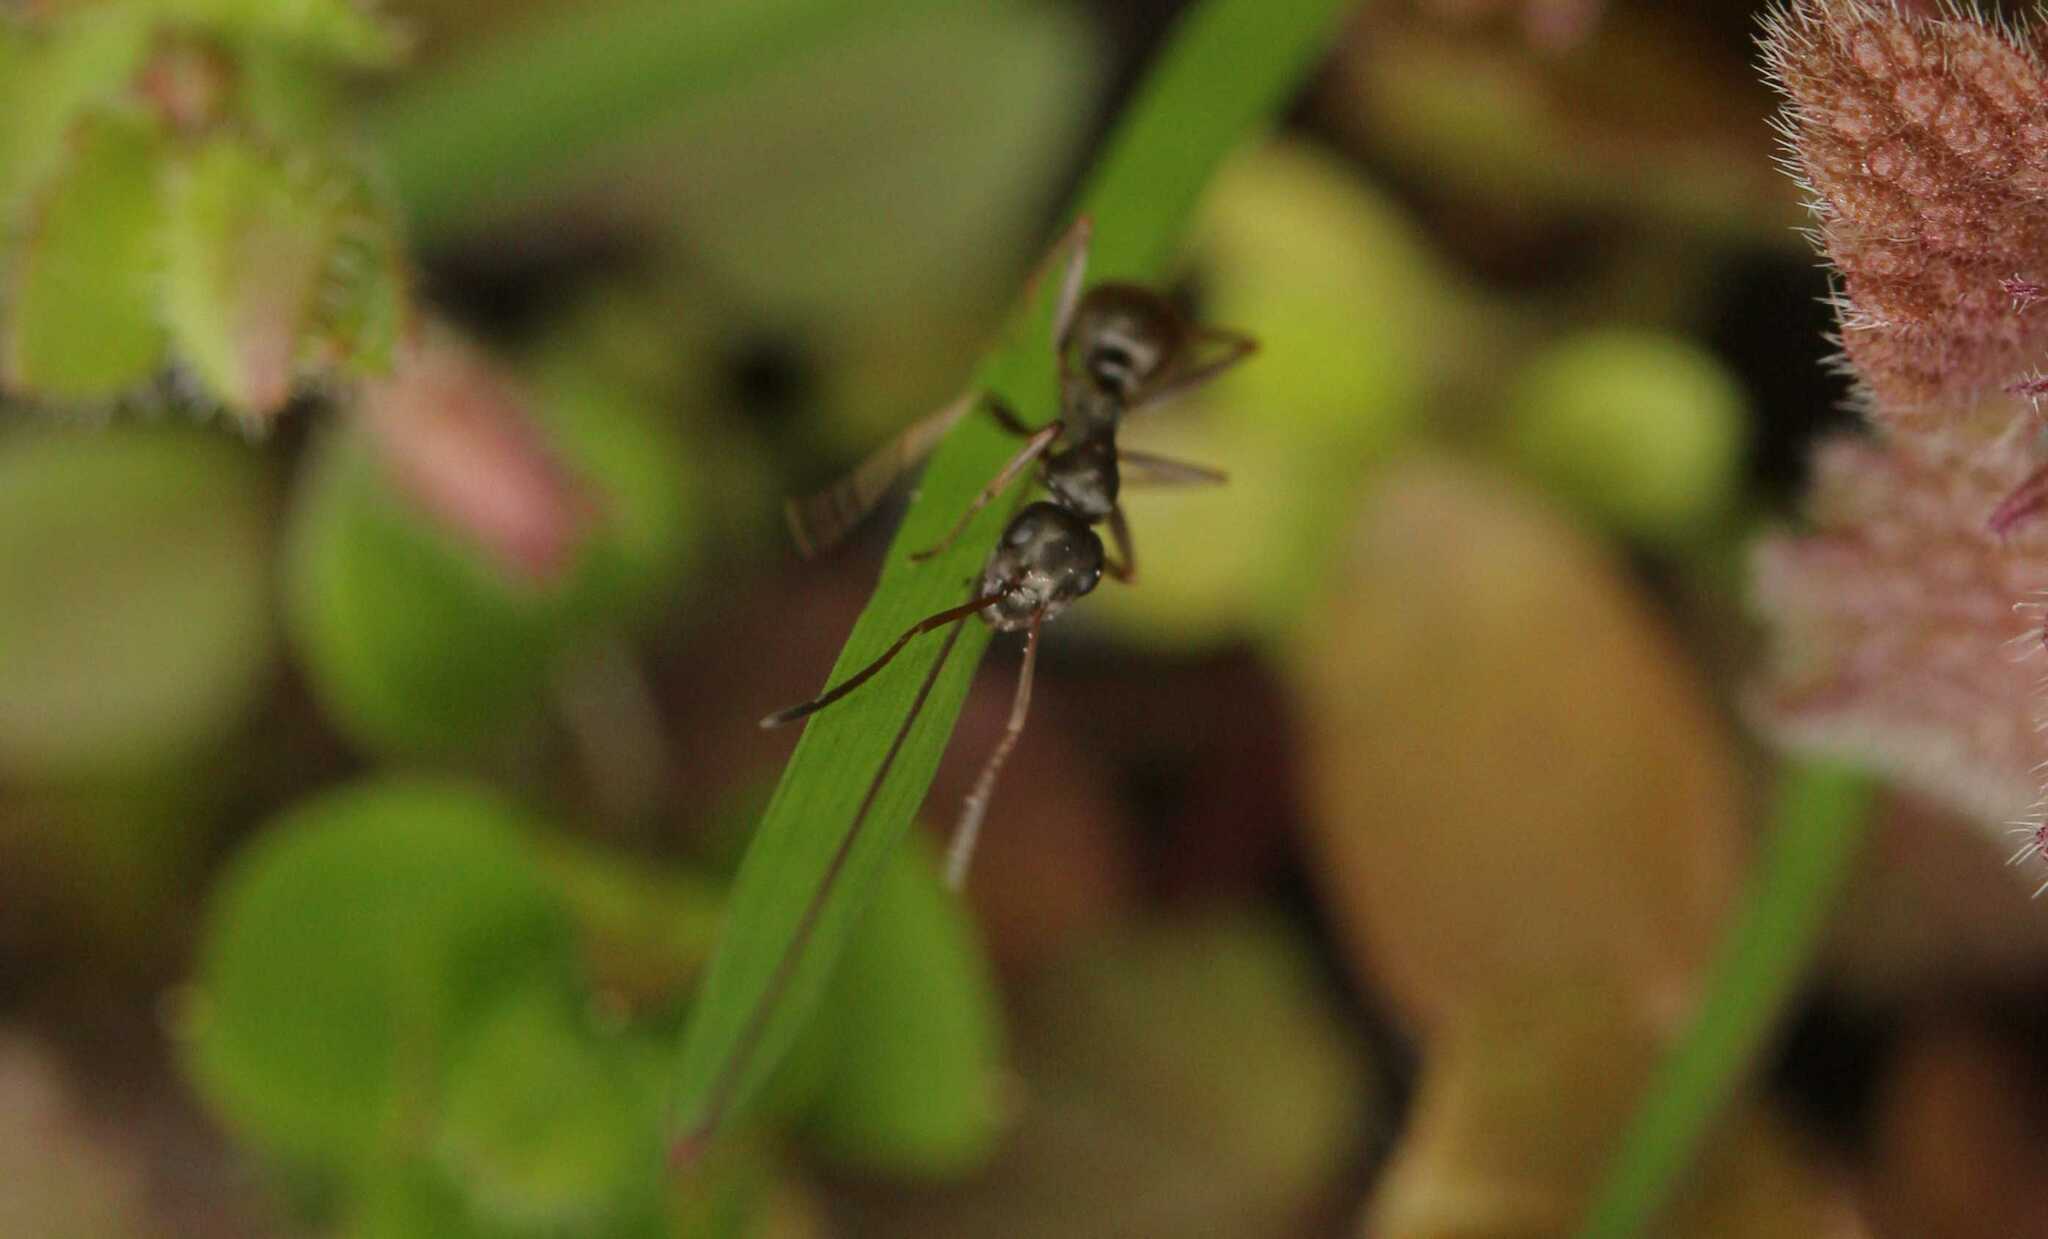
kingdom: Animalia
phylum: Arthropoda
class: Insecta
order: Hymenoptera
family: Formicidae
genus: Formica
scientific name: Formica fusca
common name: Silky ant
